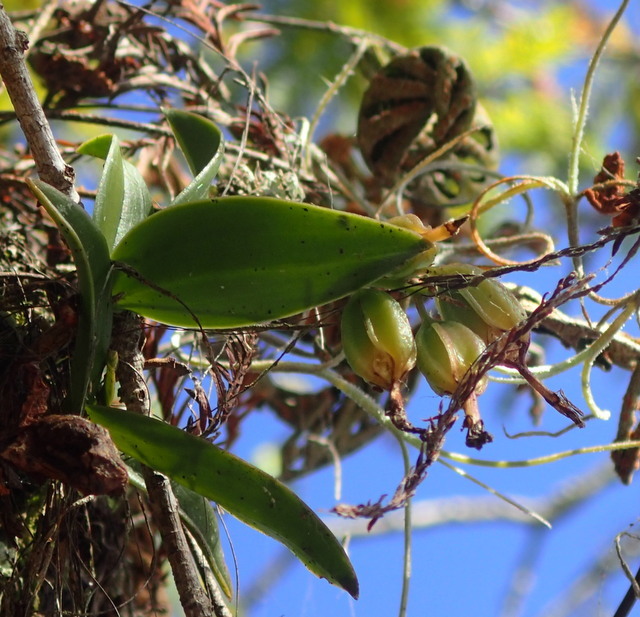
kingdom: Plantae
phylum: Tracheophyta
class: Liliopsida
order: Asparagales
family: Orchidaceae
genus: Epidendrum
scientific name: Epidendrum conopseum
